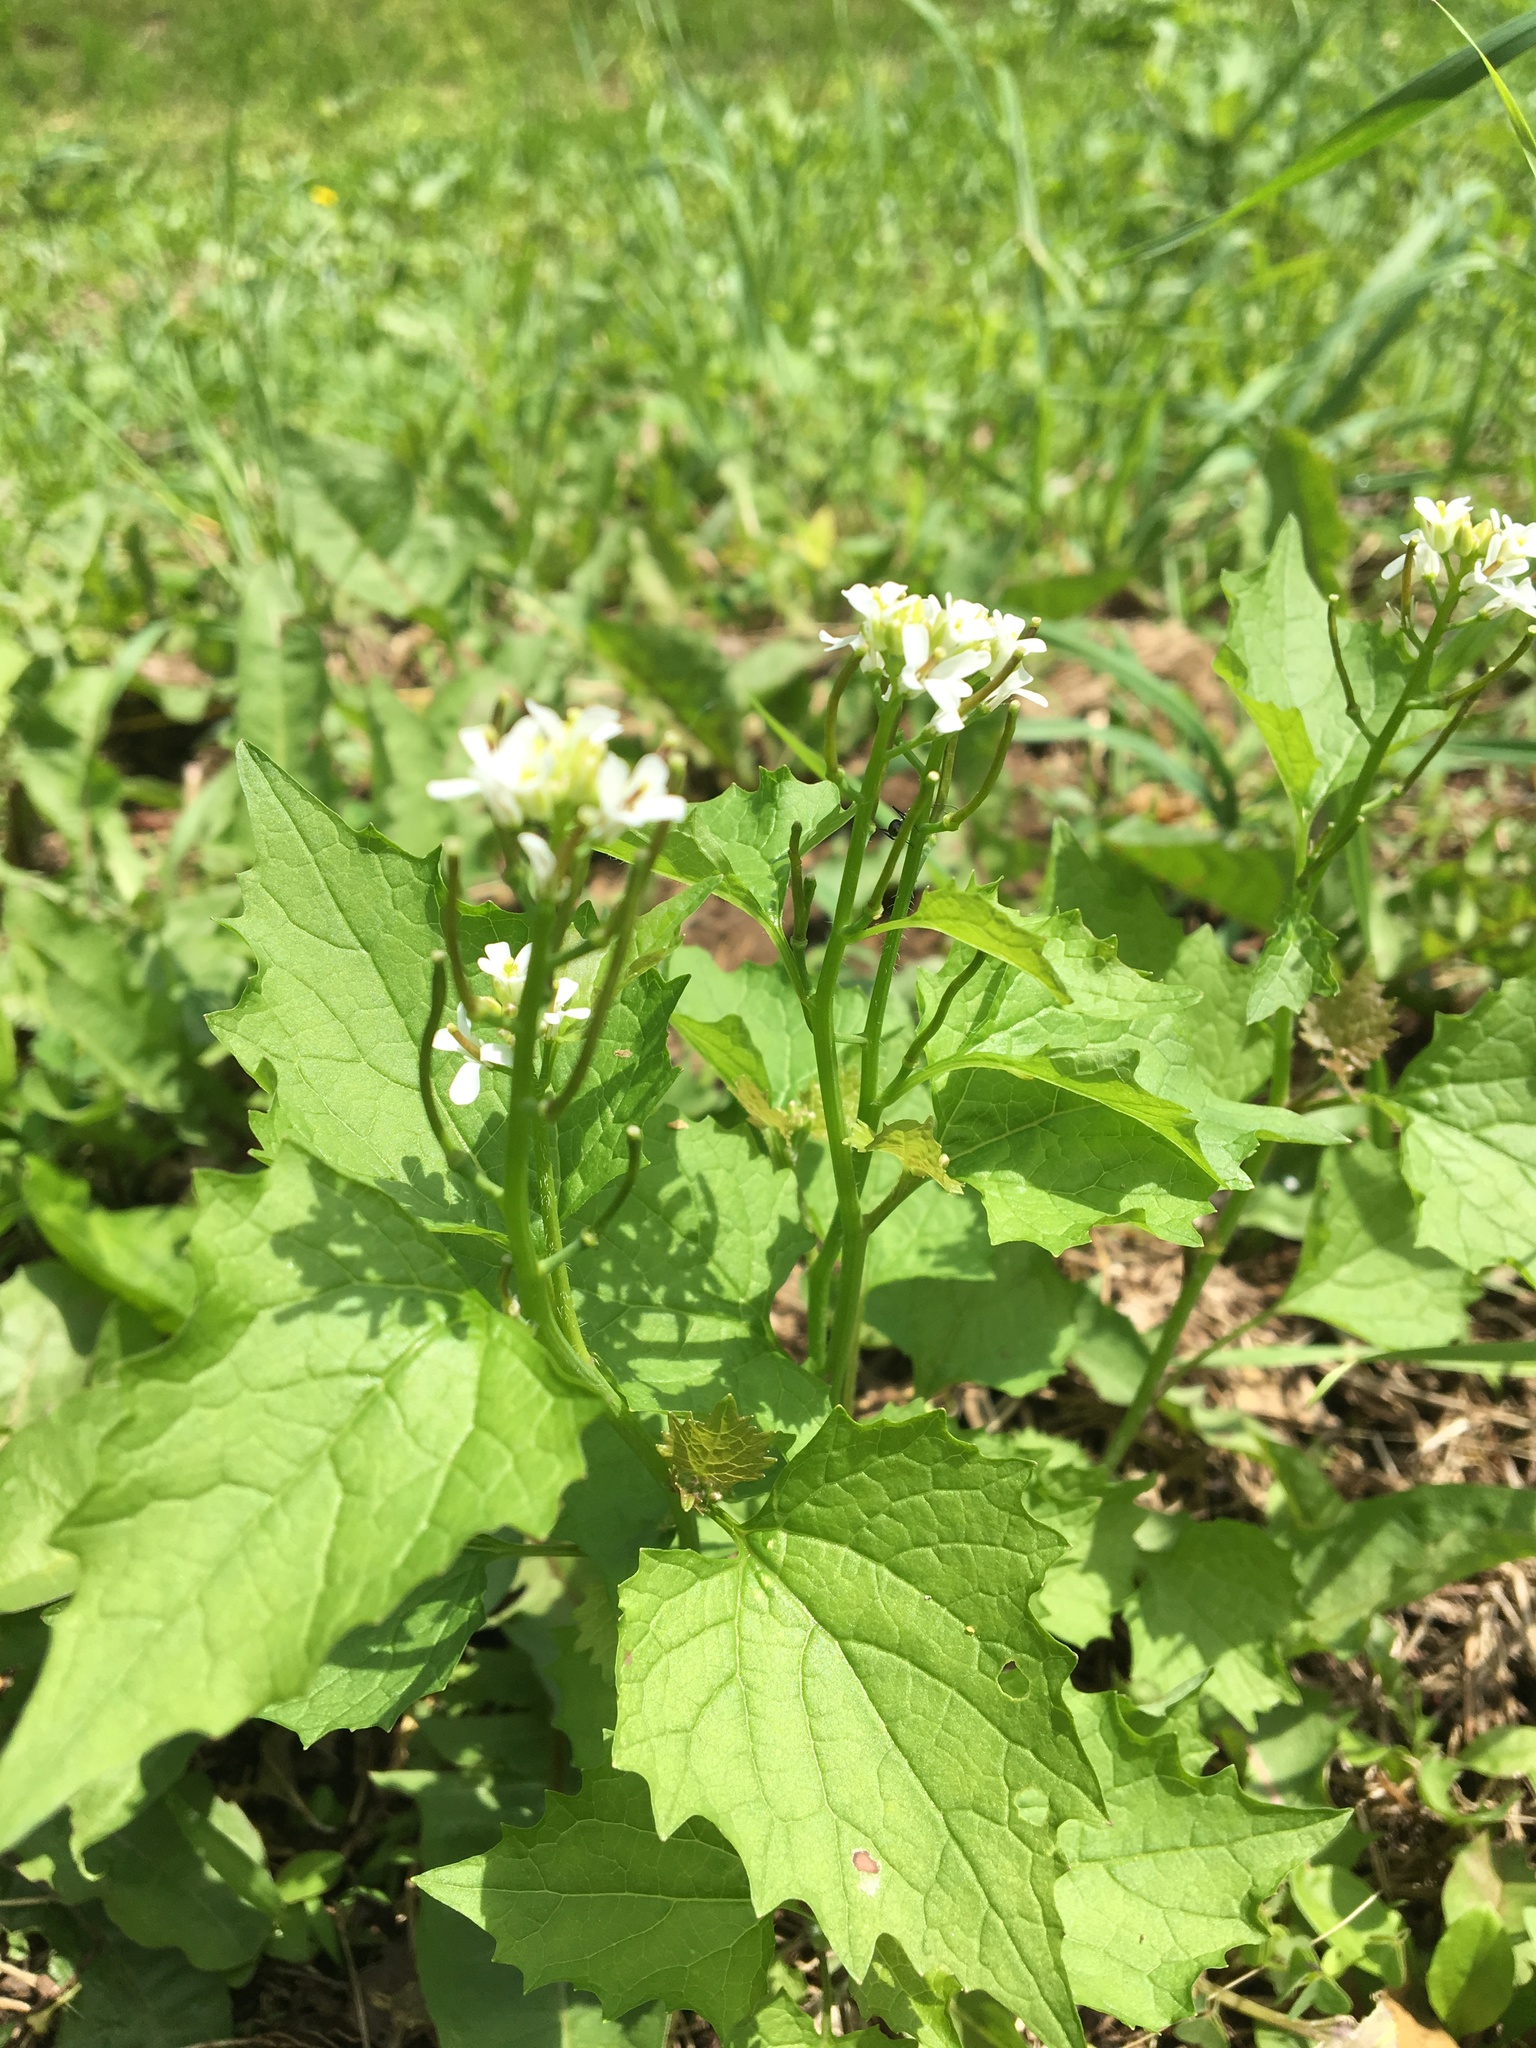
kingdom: Plantae
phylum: Tracheophyta
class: Magnoliopsida
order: Brassicales
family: Brassicaceae
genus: Alliaria
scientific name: Alliaria petiolata
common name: Garlic mustard
